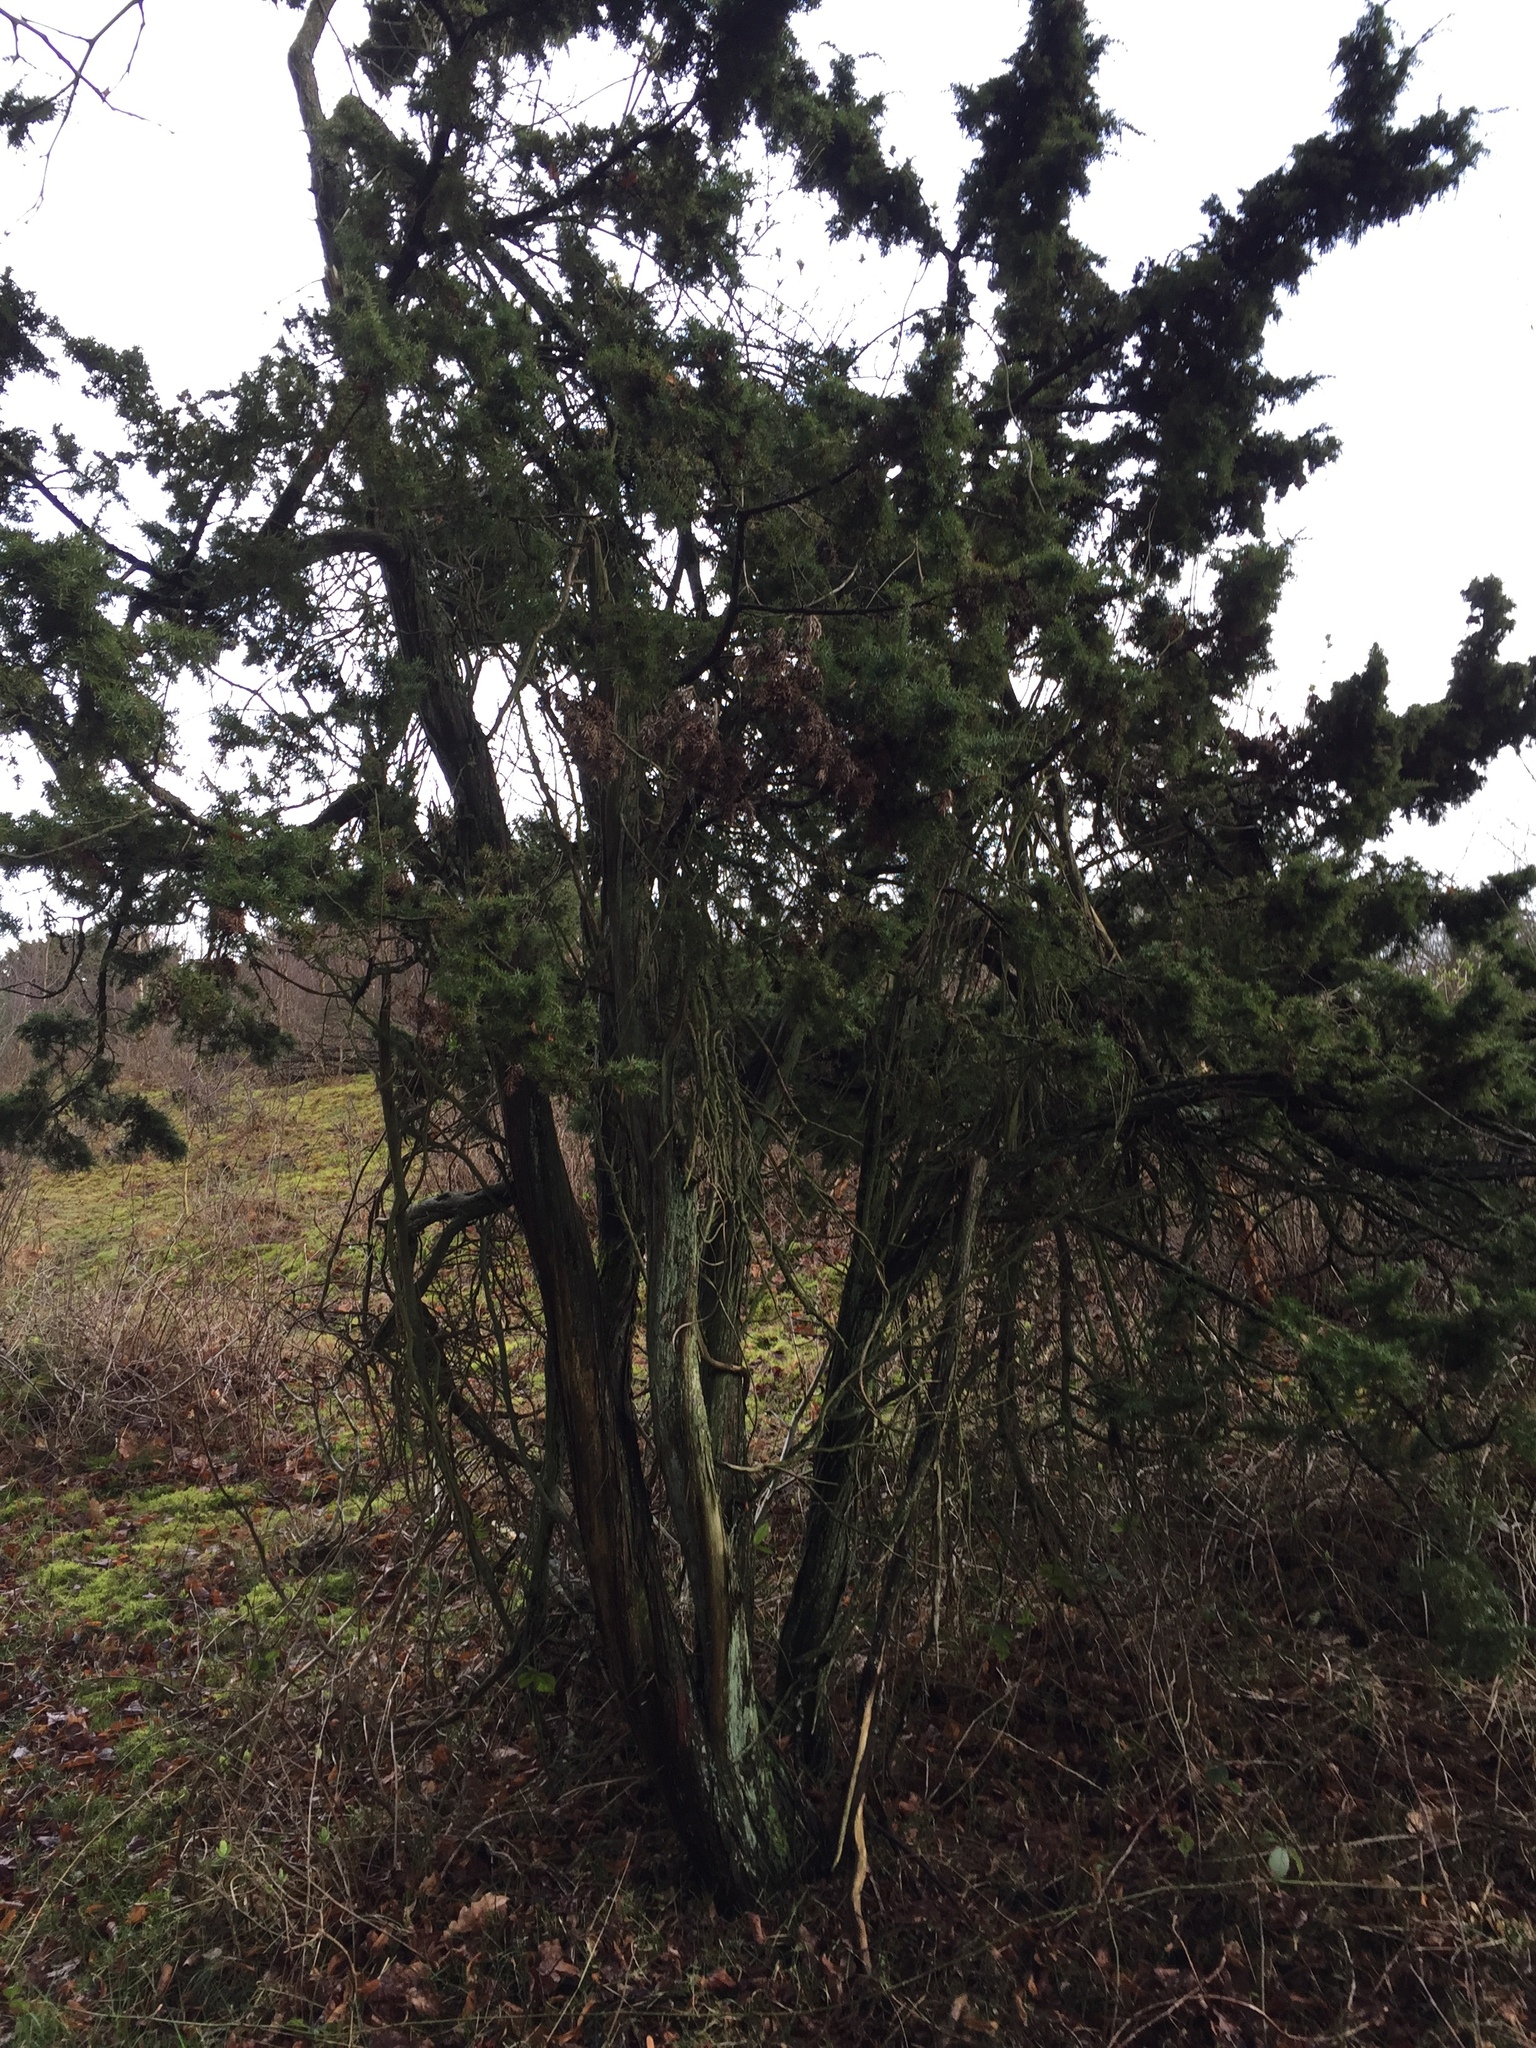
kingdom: Plantae
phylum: Tracheophyta
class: Pinopsida
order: Pinales
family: Cupressaceae
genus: Juniperus
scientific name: Juniperus communis
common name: Common juniper
